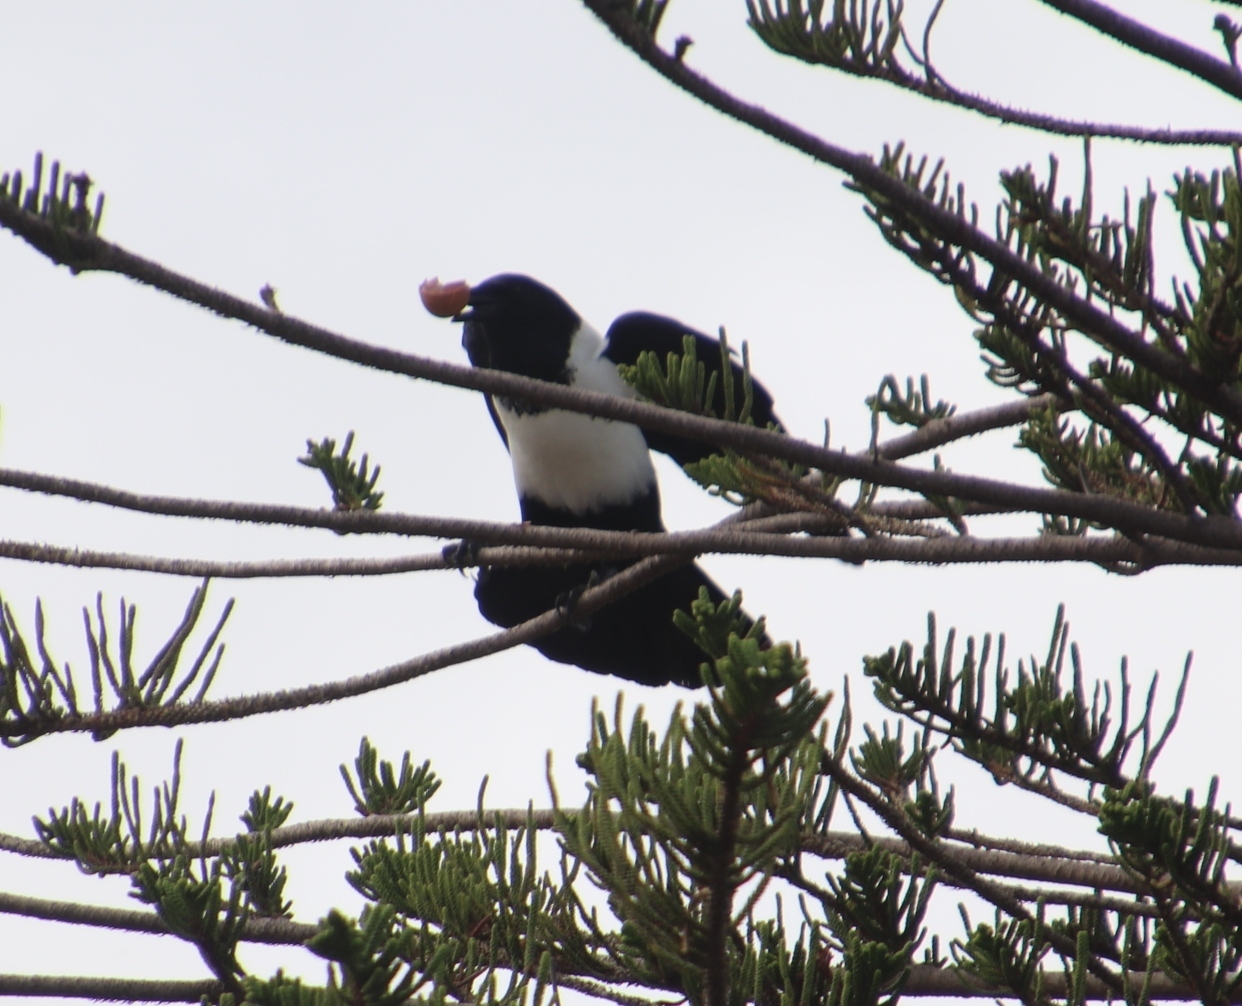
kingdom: Animalia
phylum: Chordata
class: Aves
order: Passeriformes
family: Corvidae
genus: Corvus
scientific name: Corvus albus
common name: Pied crow
